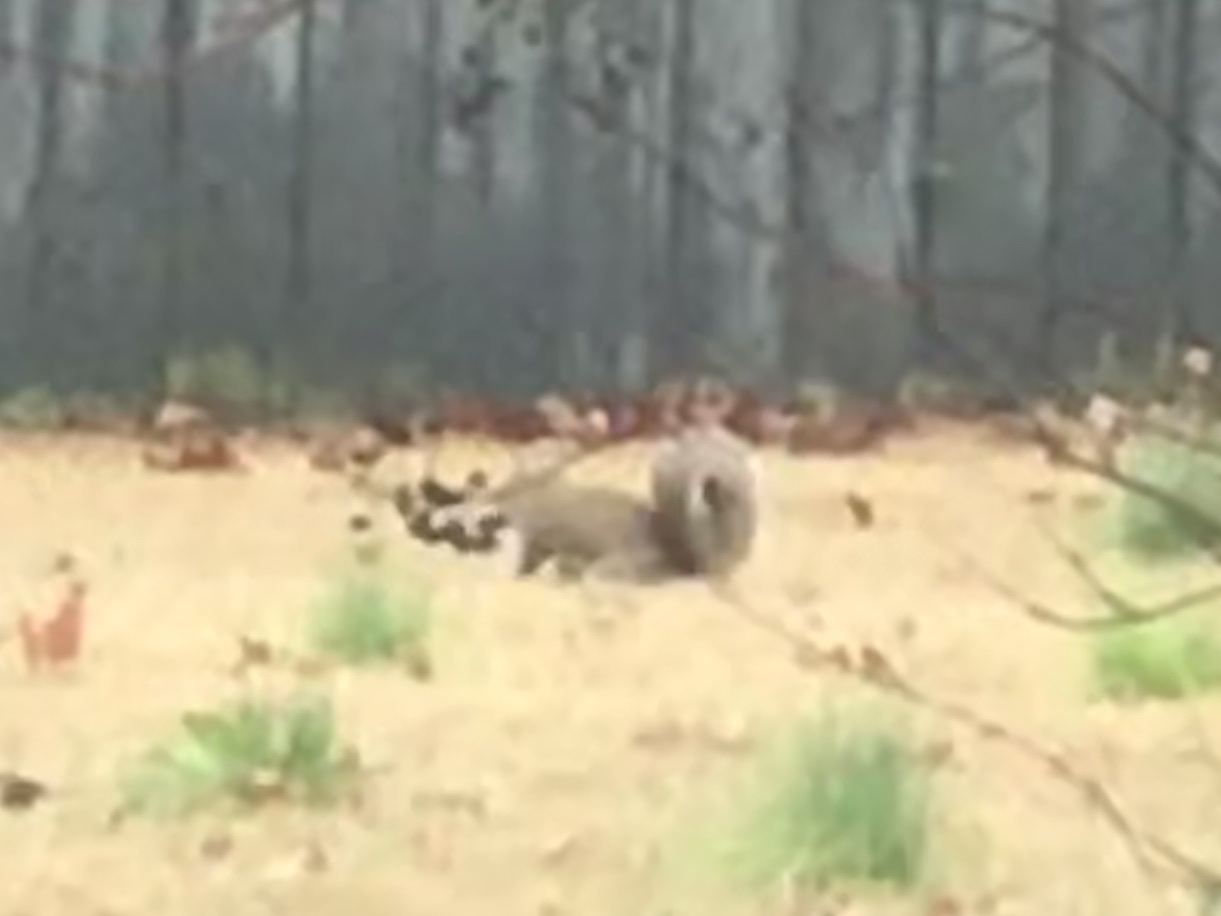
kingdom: Animalia
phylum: Chordata
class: Mammalia
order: Rodentia
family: Sciuridae
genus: Sciurus
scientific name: Sciurus carolinensis
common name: Eastern gray squirrel
